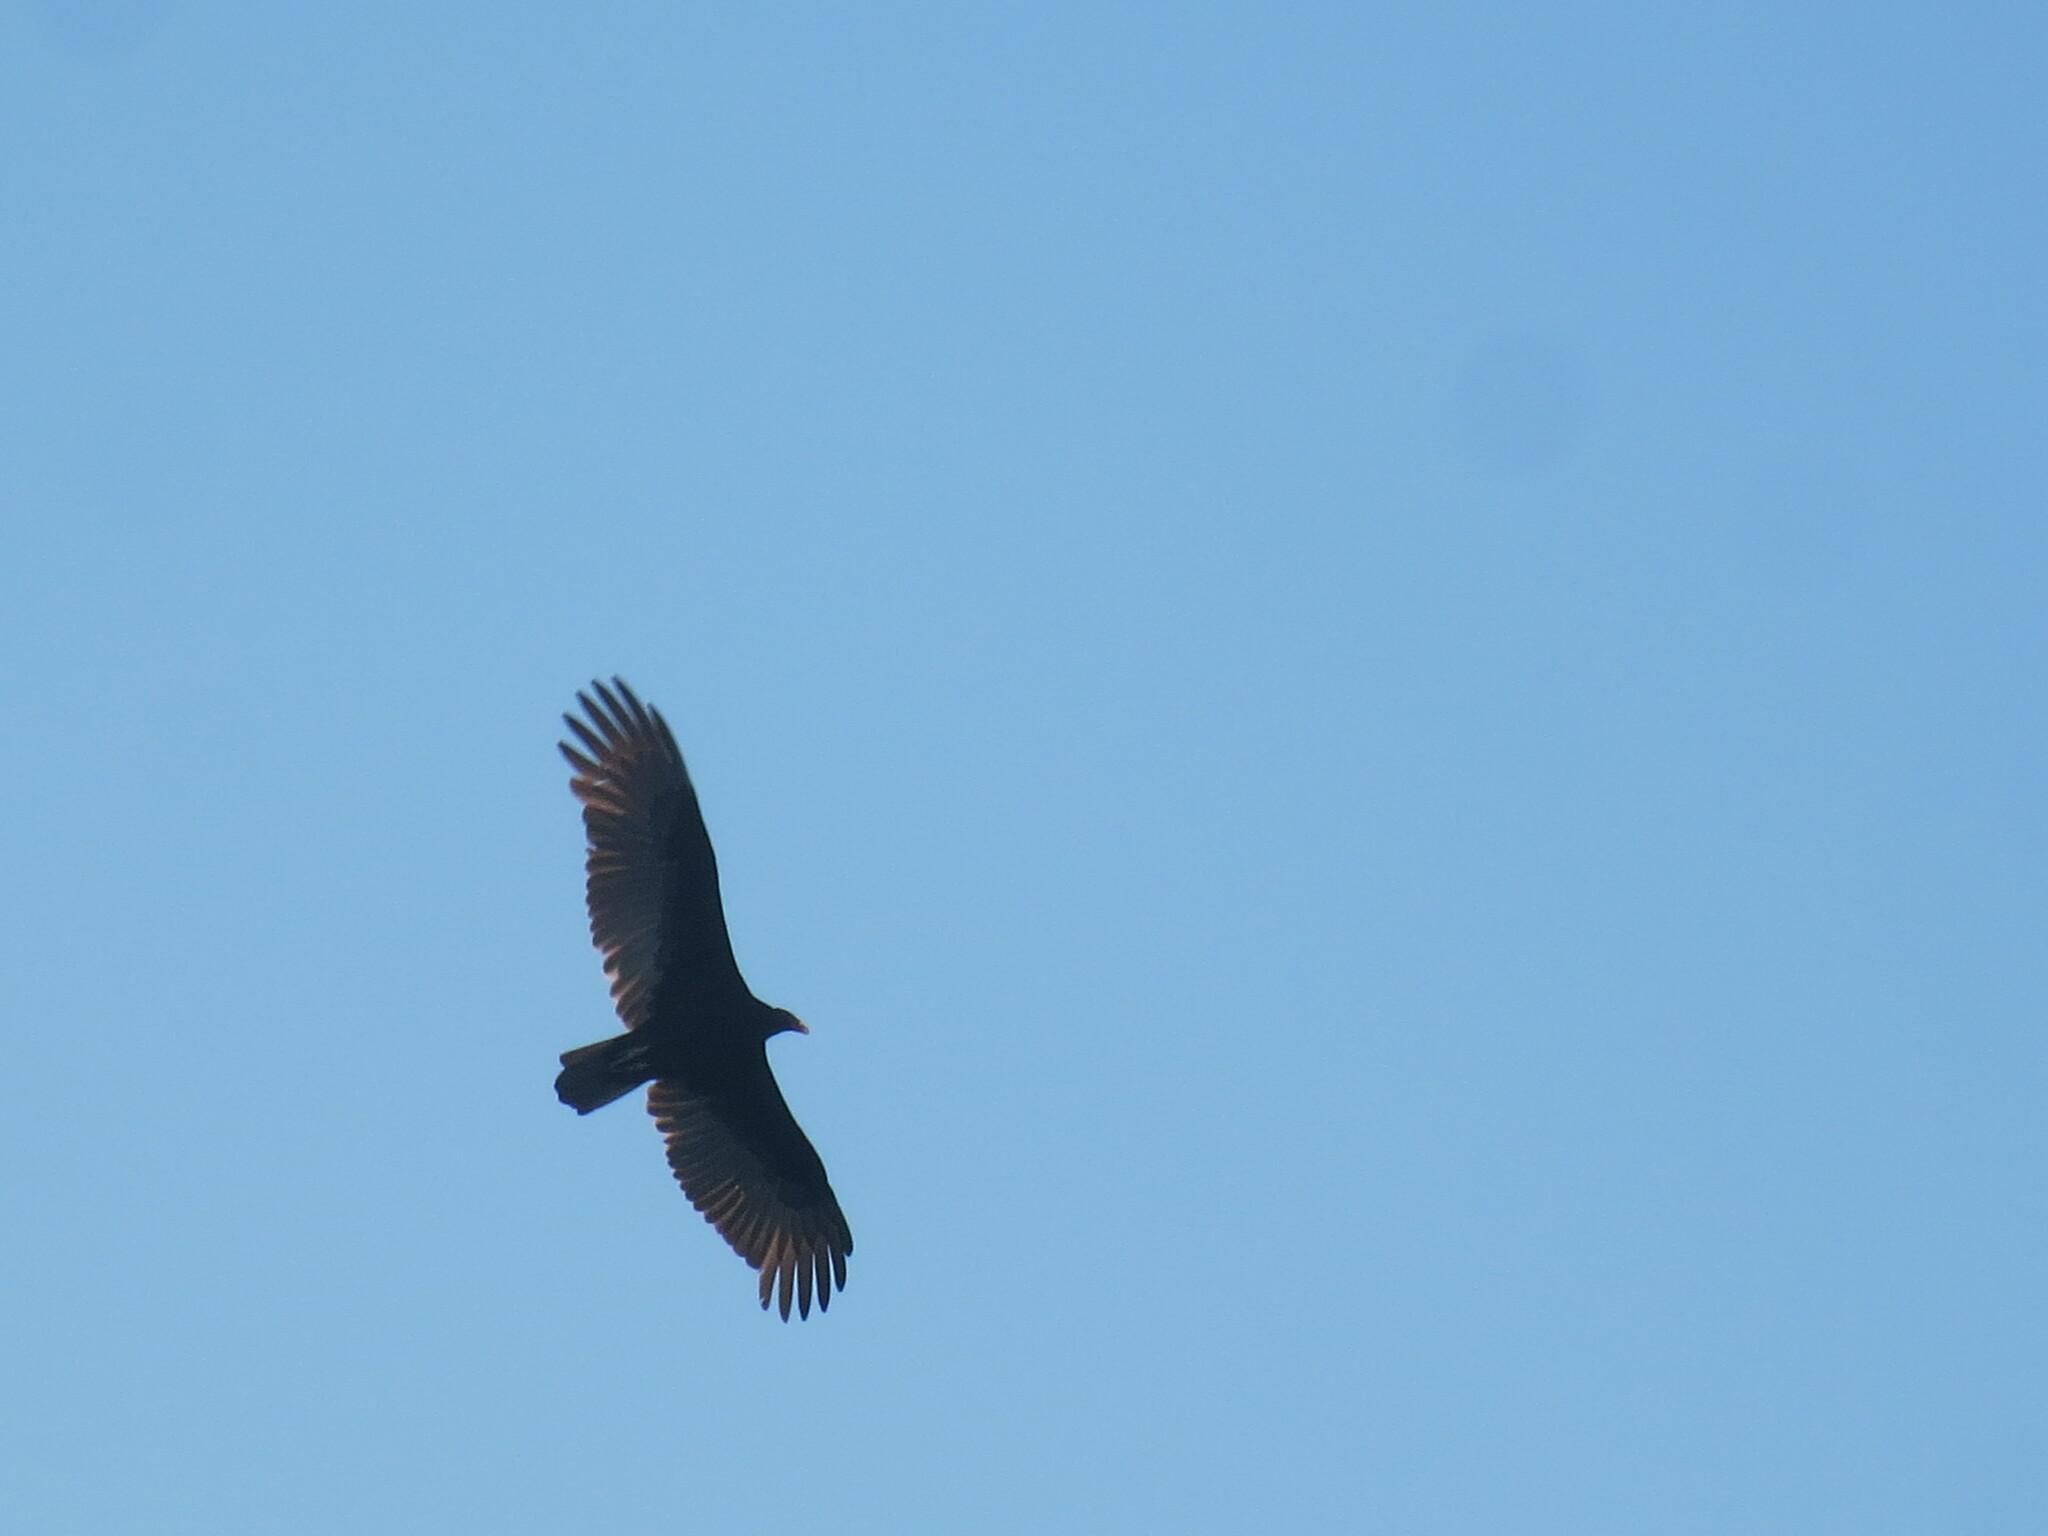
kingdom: Animalia
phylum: Chordata
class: Aves
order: Accipitriformes
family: Cathartidae
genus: Cathartes
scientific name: Cathartes aura
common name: Turkey vulture
